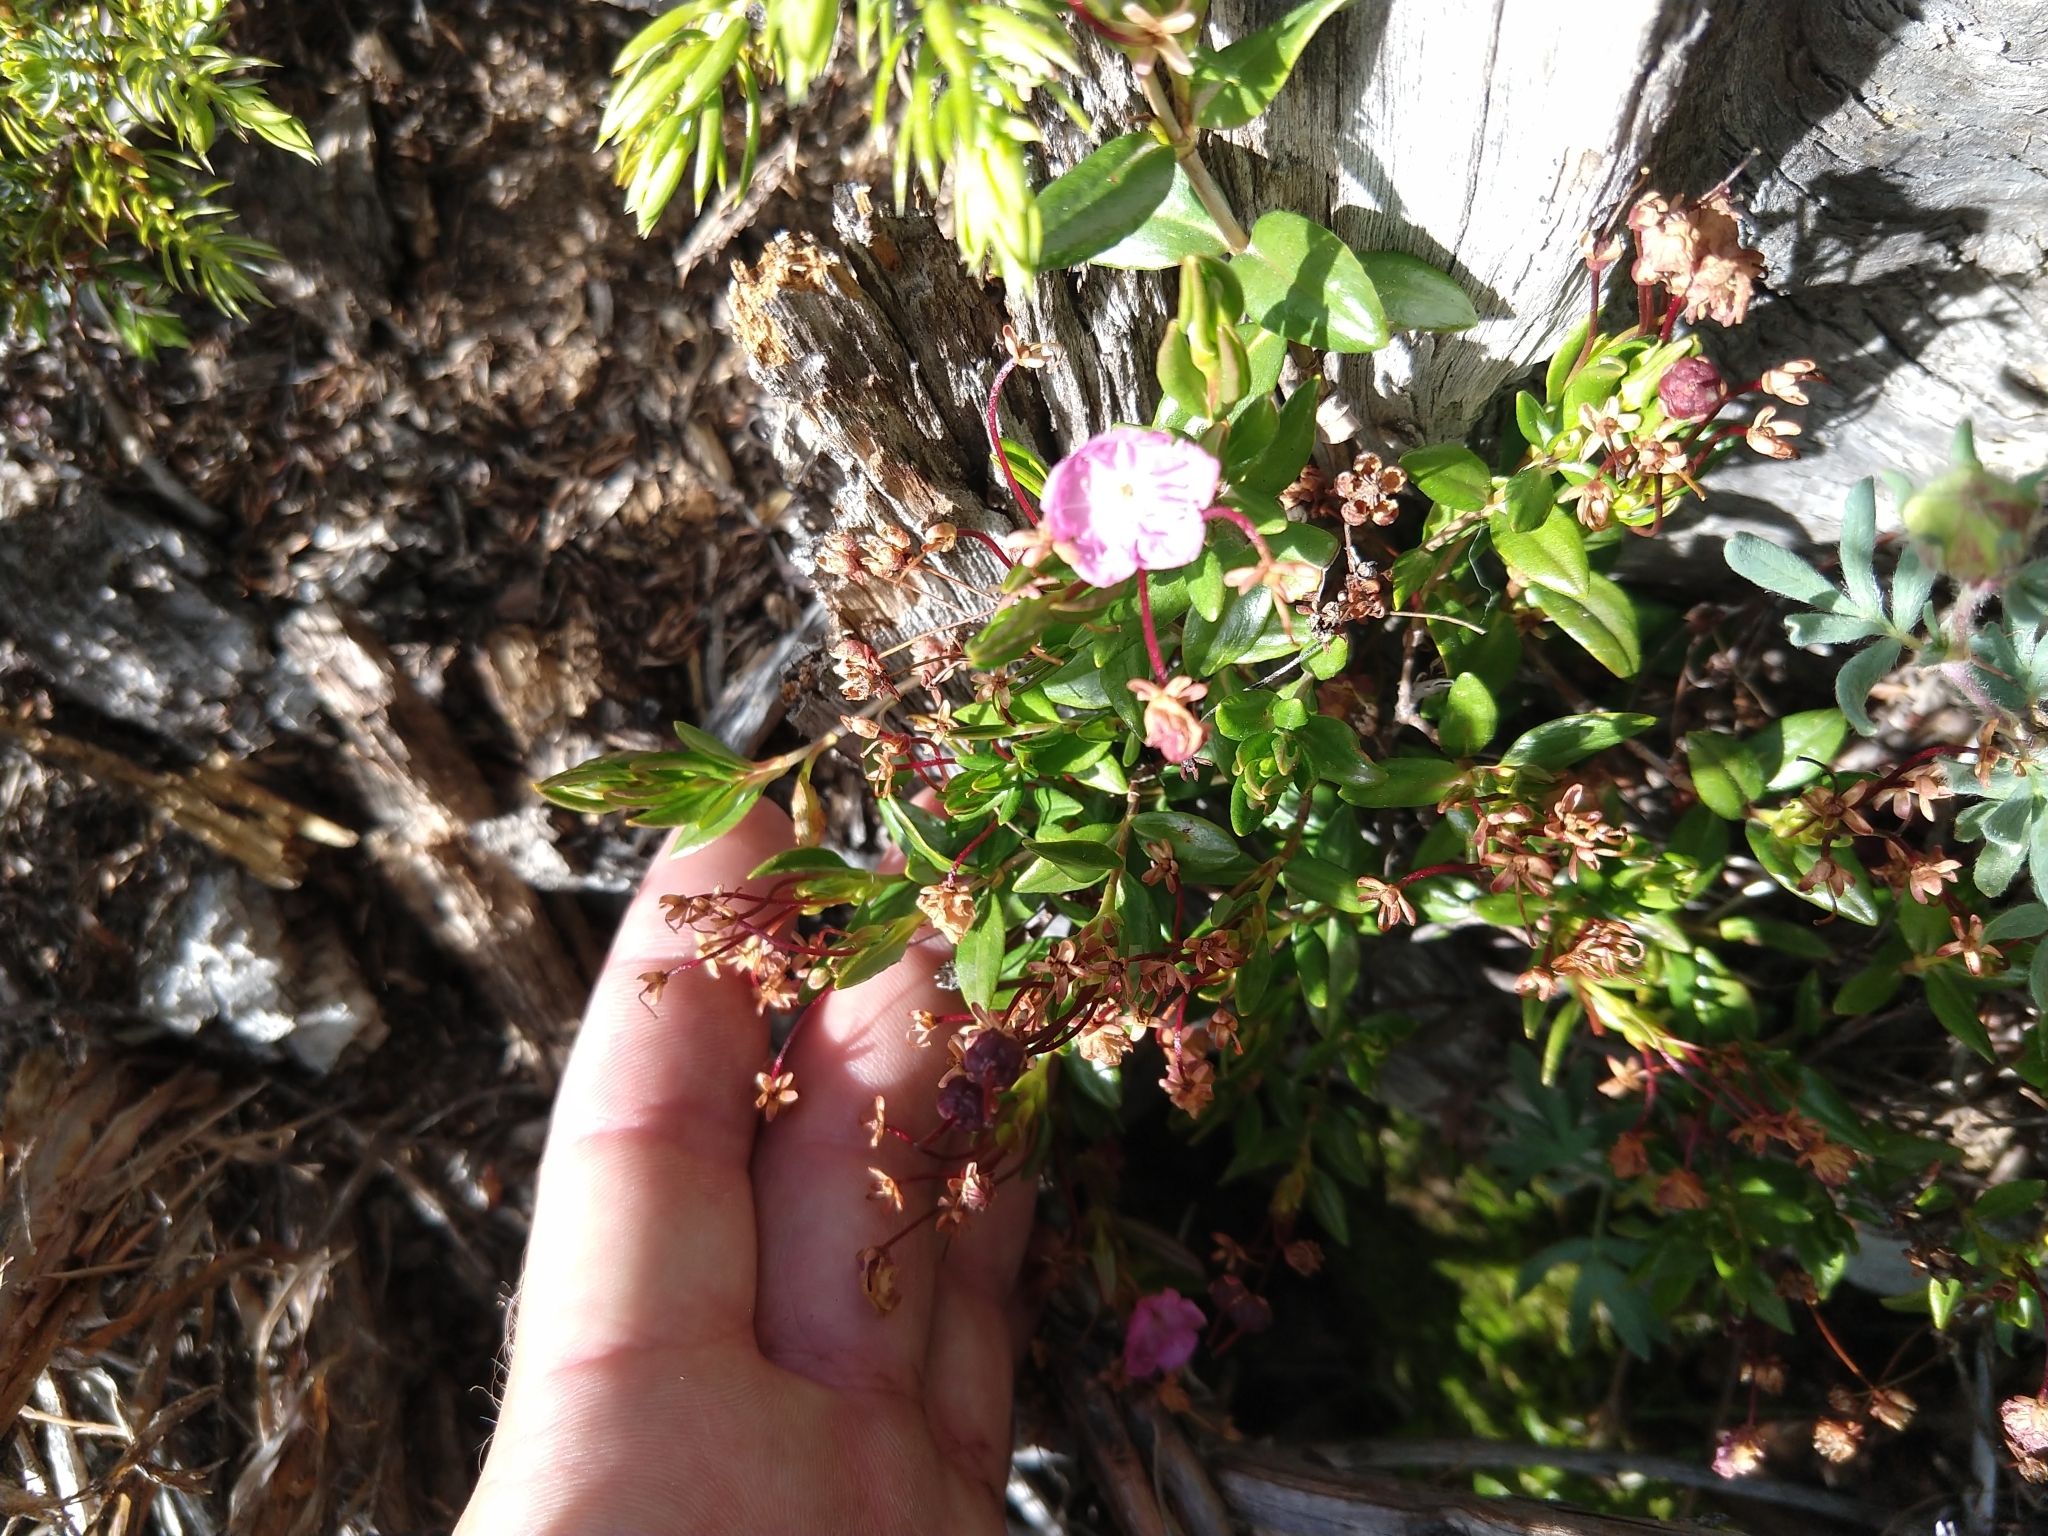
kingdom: Plantae
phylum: Tracheophyta
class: Magnoliopsida
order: Ericales
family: Ericaceae
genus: Kalmia
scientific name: Kalmia microphylla
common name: Alpine bog laurel
